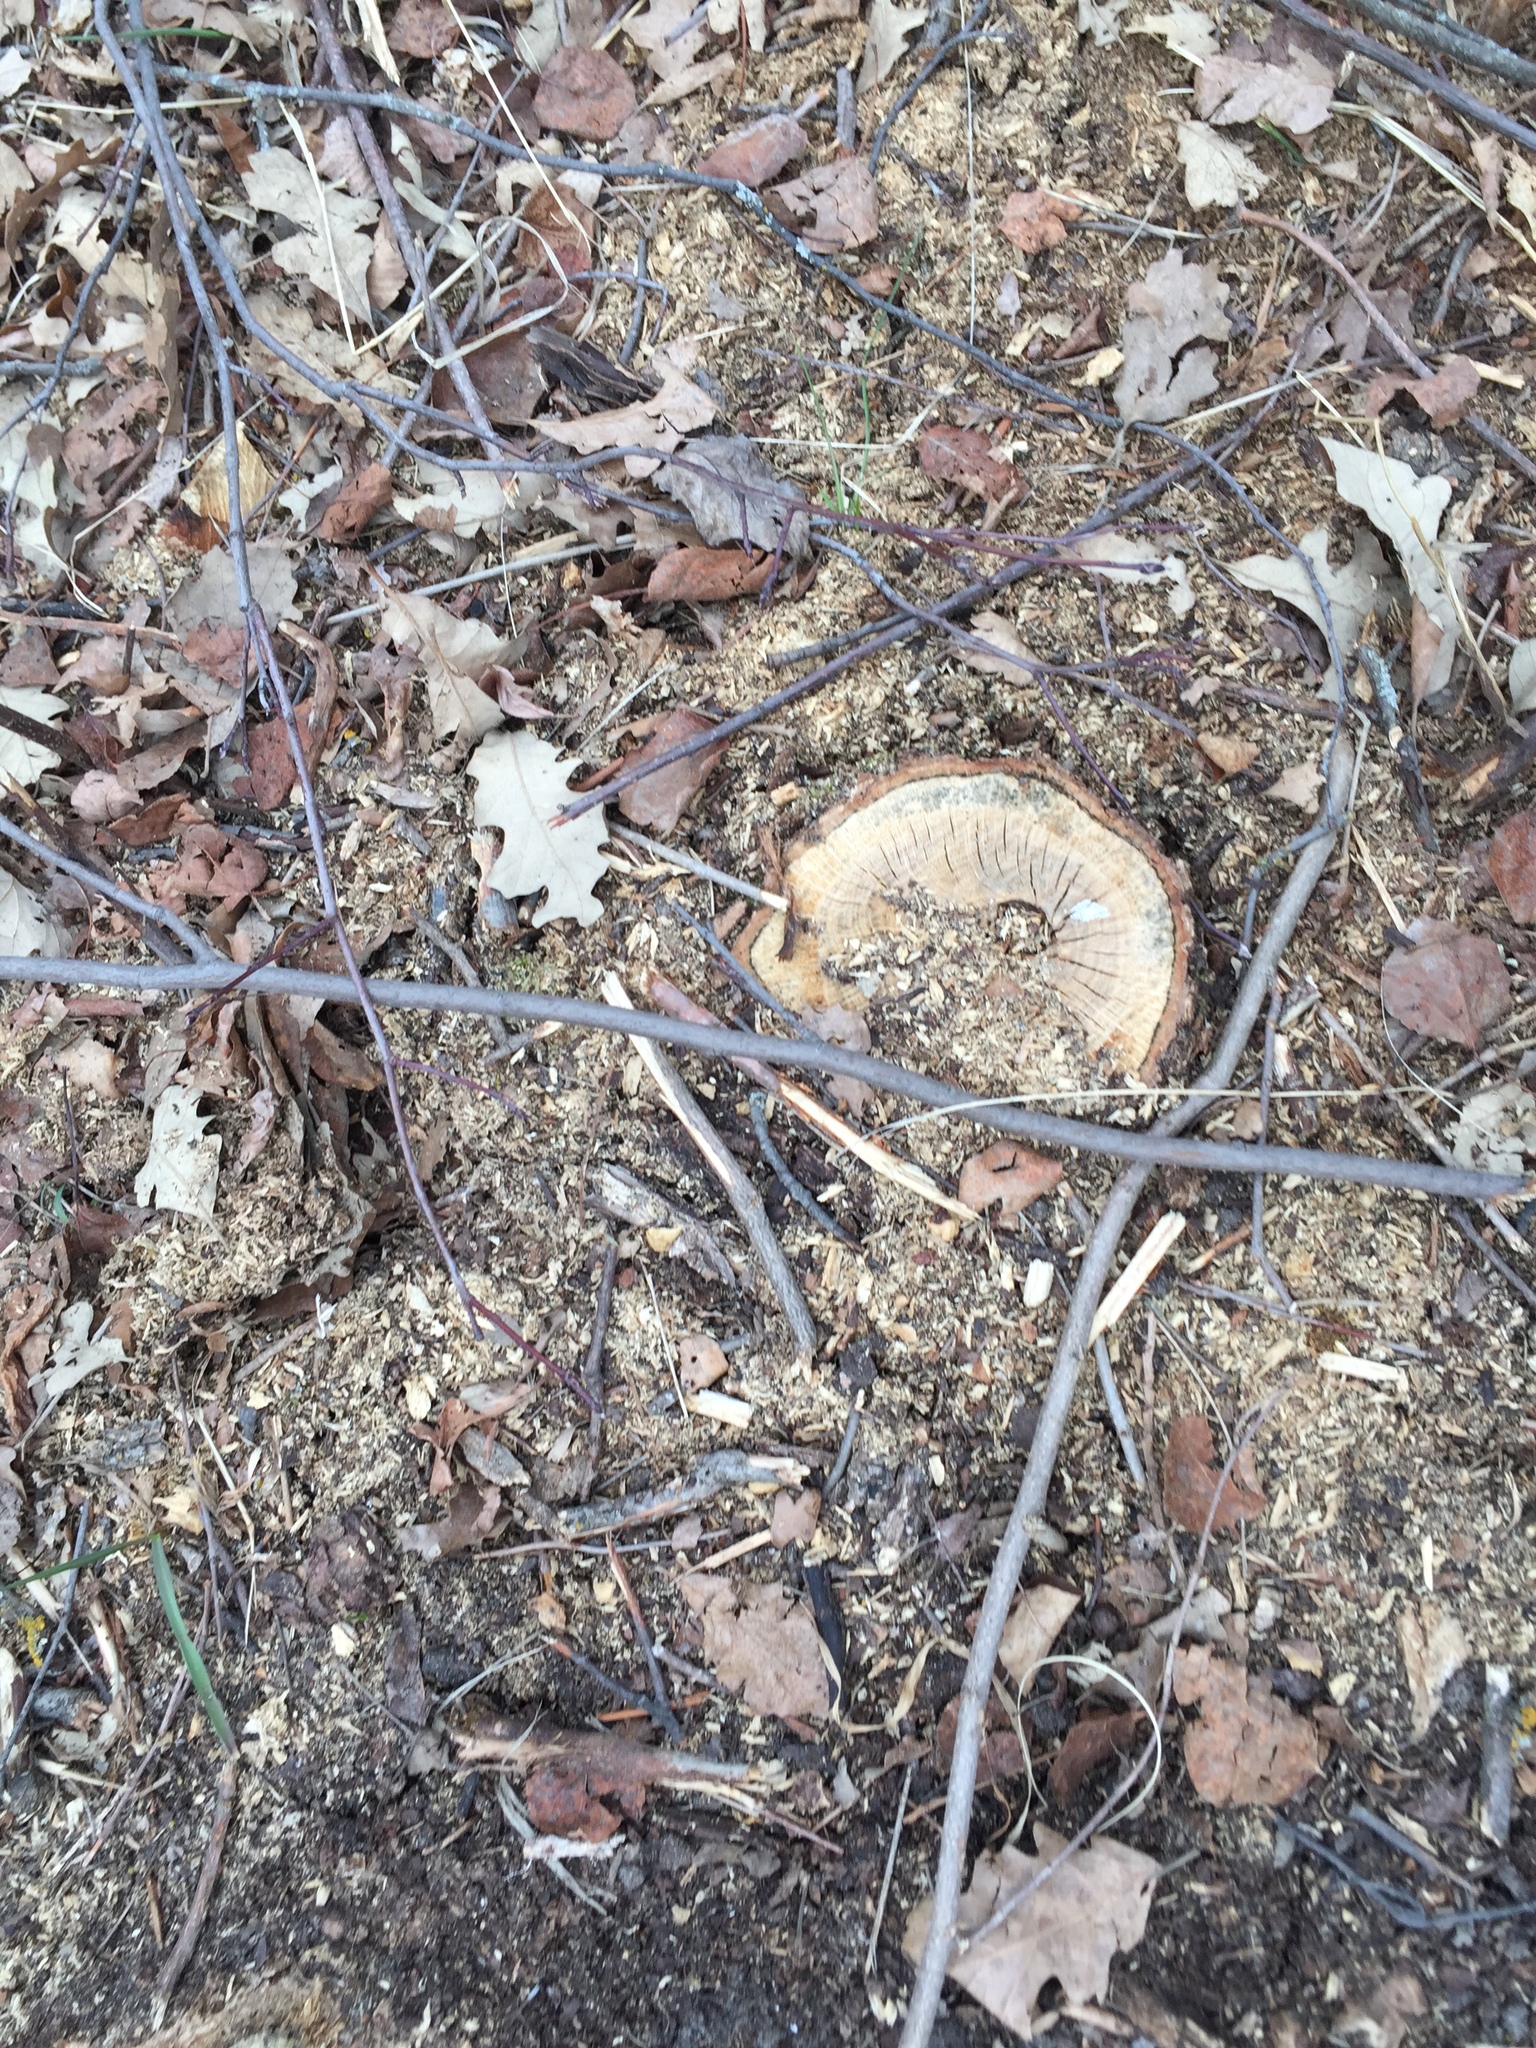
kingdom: Plantae
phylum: Tracheophyta
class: Magnoliopsida
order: Fagales
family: Fagaceae
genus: Quercus
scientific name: Quercus macrocarpa
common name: Bur oak
